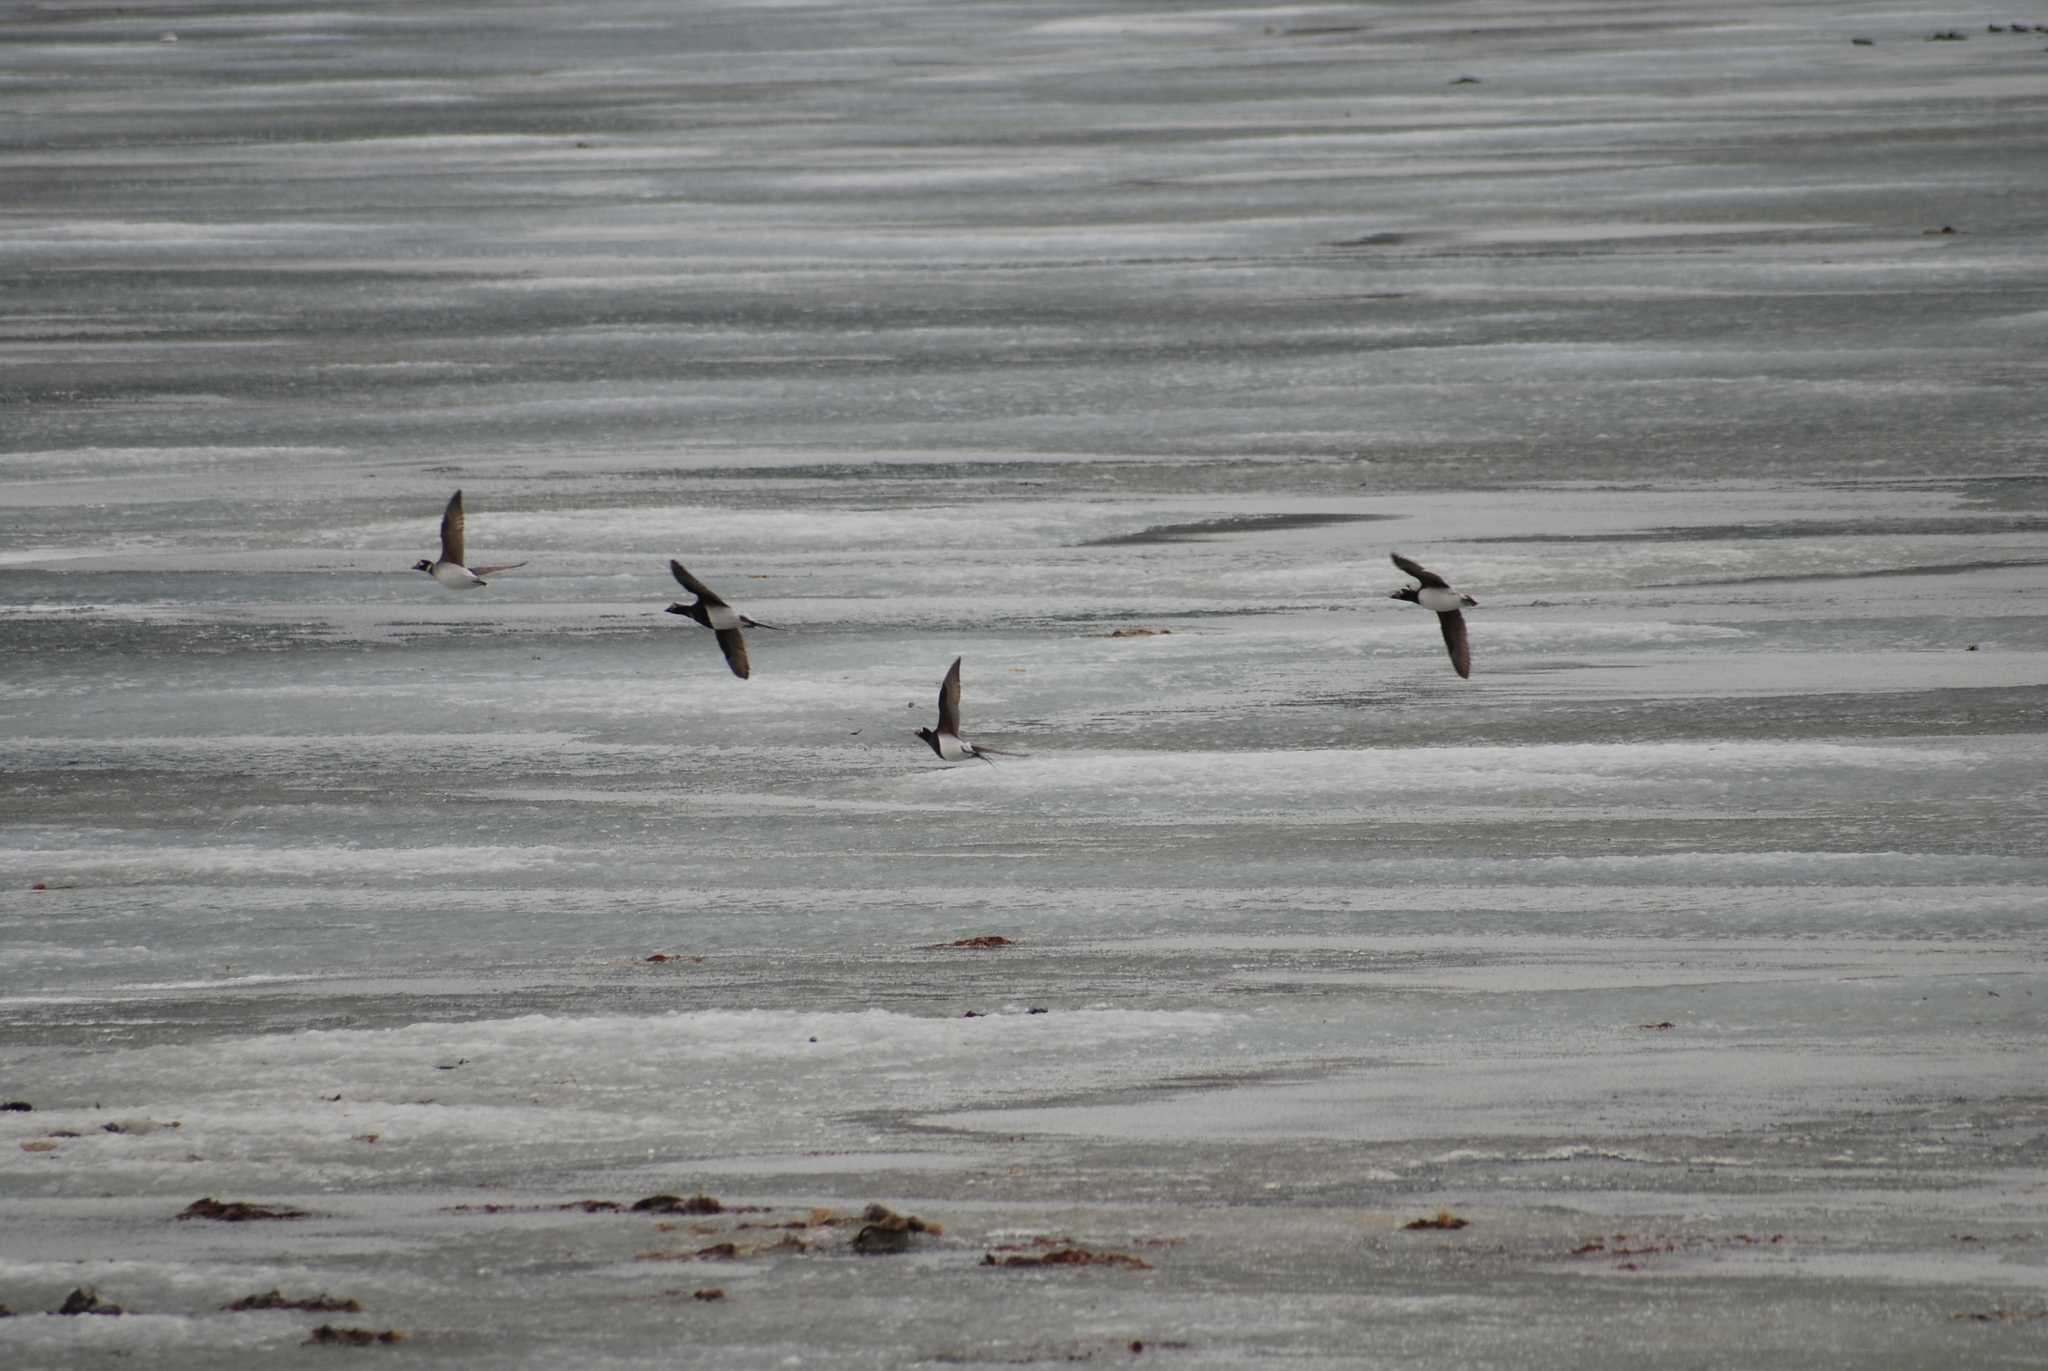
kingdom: Animalia
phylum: Chordata
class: Aves
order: Anseriformes
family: Anatidae
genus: Clangula
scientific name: Clangula hyemalis
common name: Long-tailed duck
